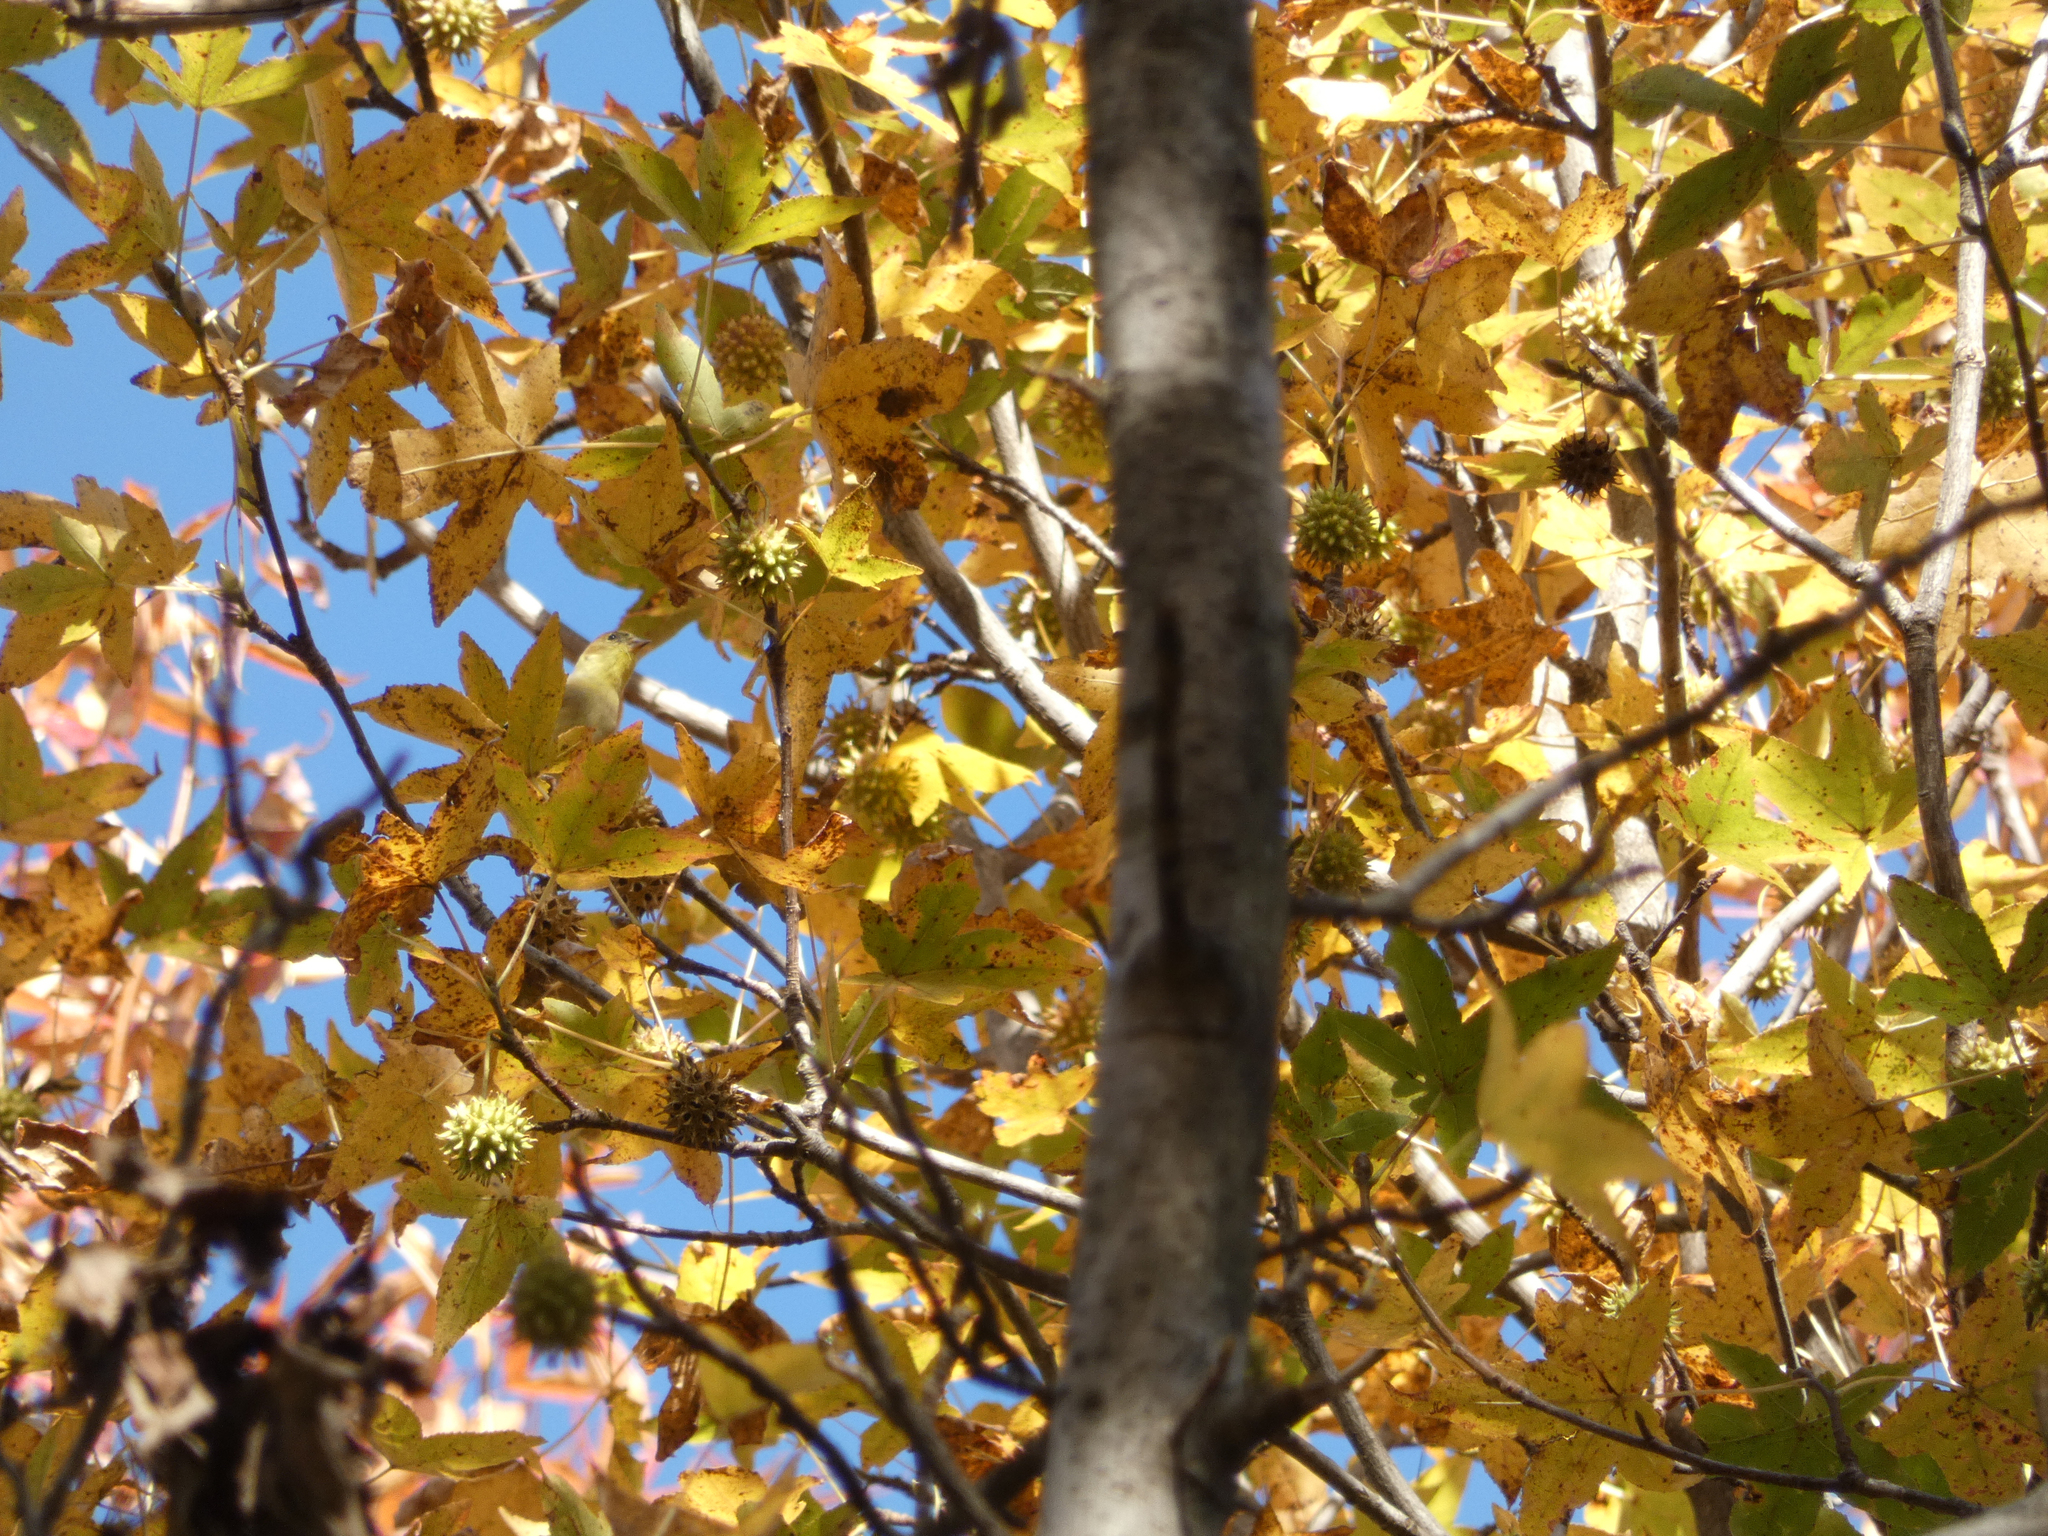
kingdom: Plantae
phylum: Tracheophyta
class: Magnoliopsida
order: Saxifragales
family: Altingiaceae
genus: Liquidambar
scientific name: Liquidambar styraciflua
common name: Sweet gum
